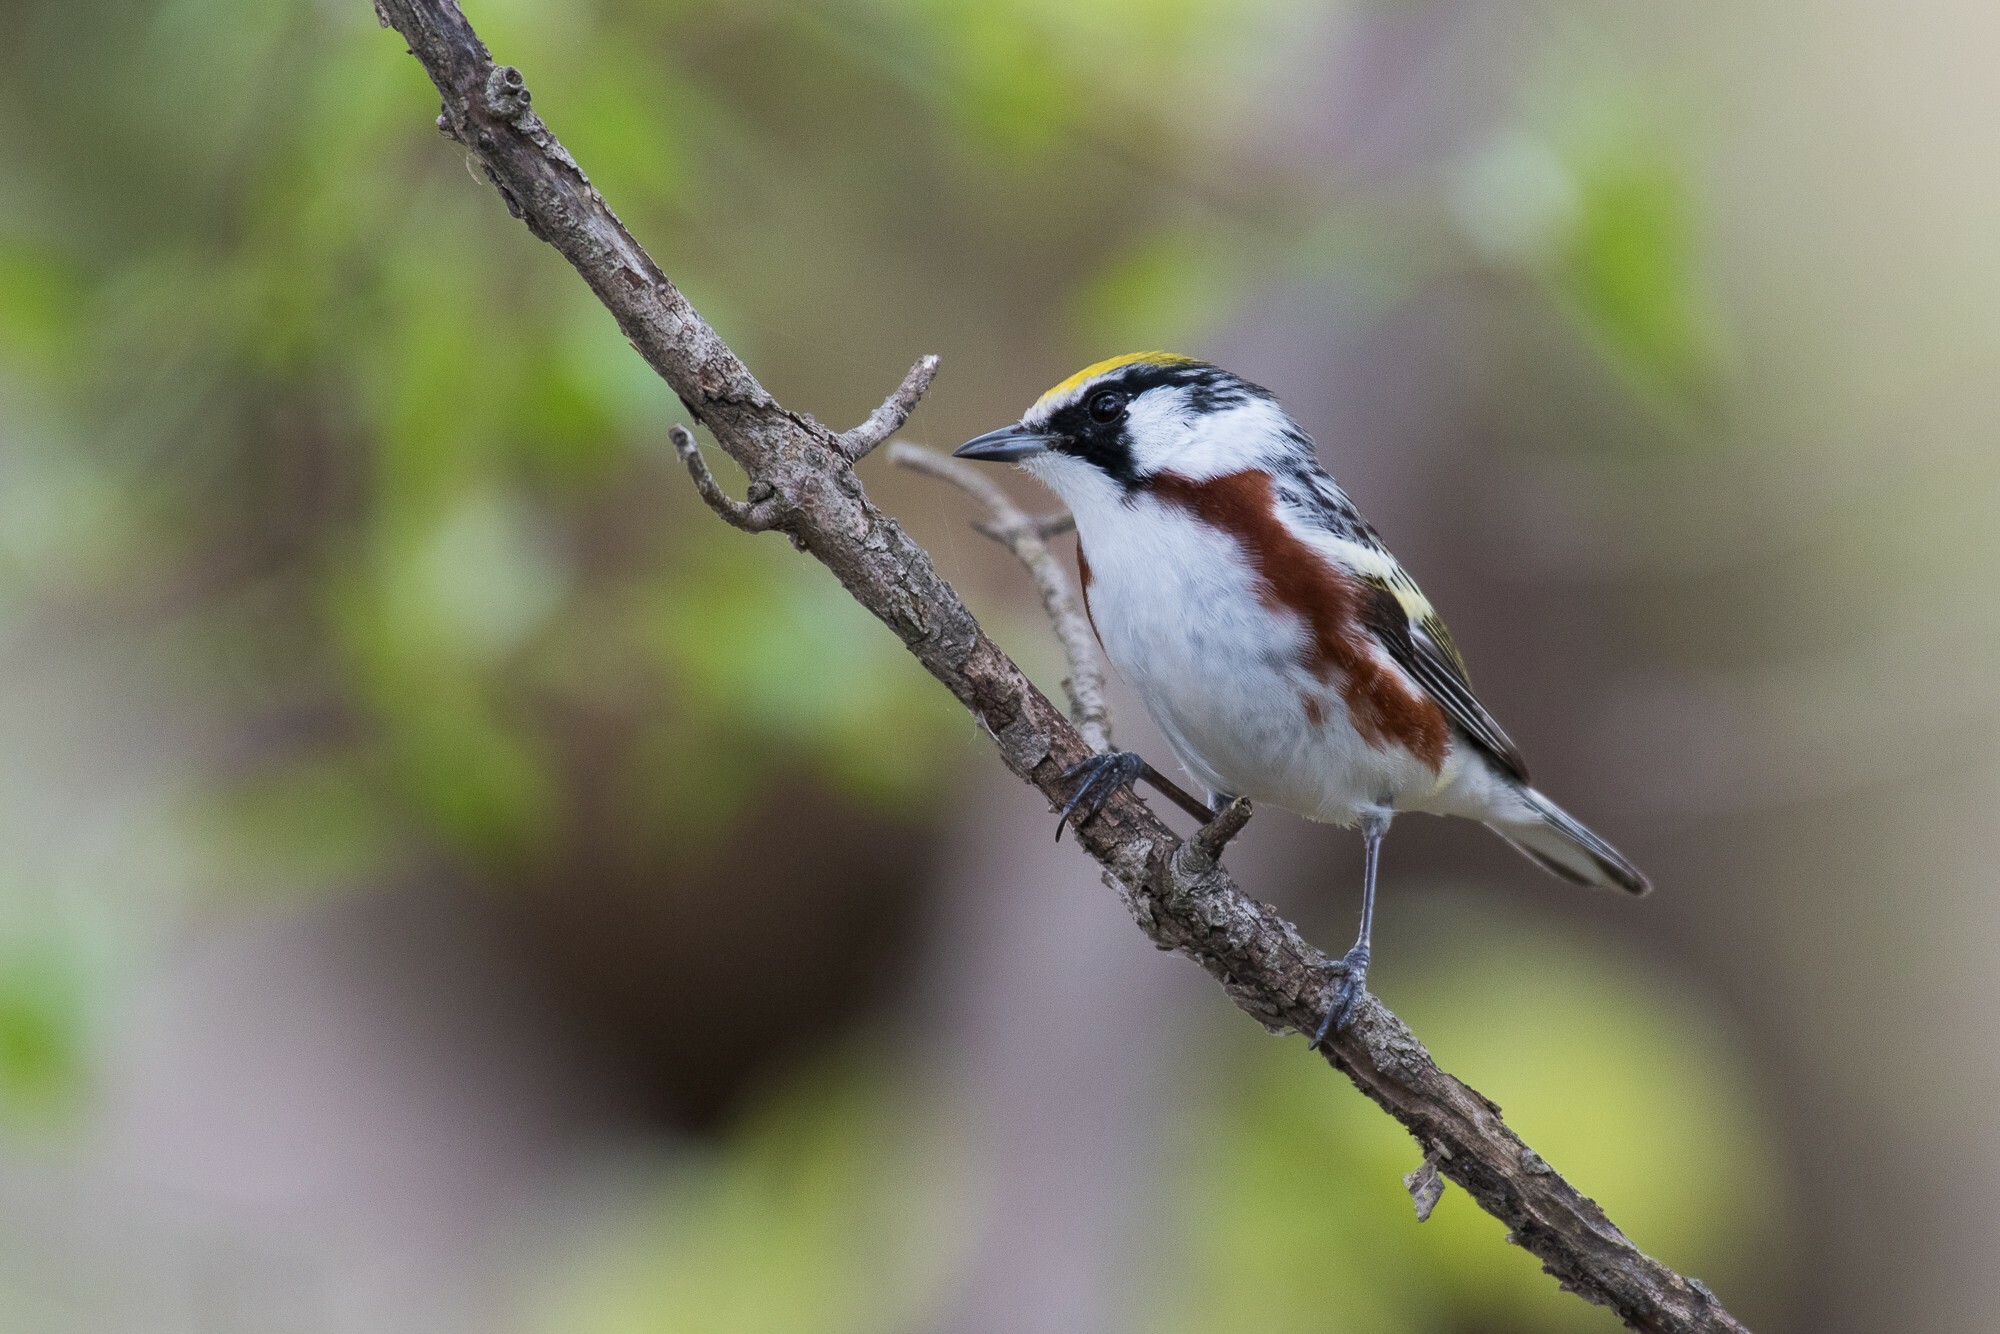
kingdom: Animalia
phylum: Chordata
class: Aves
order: Passeriformes
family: Parulidae
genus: Setophaga
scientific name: Setophaga pensylvanica
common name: Chestnut-sided warbler
